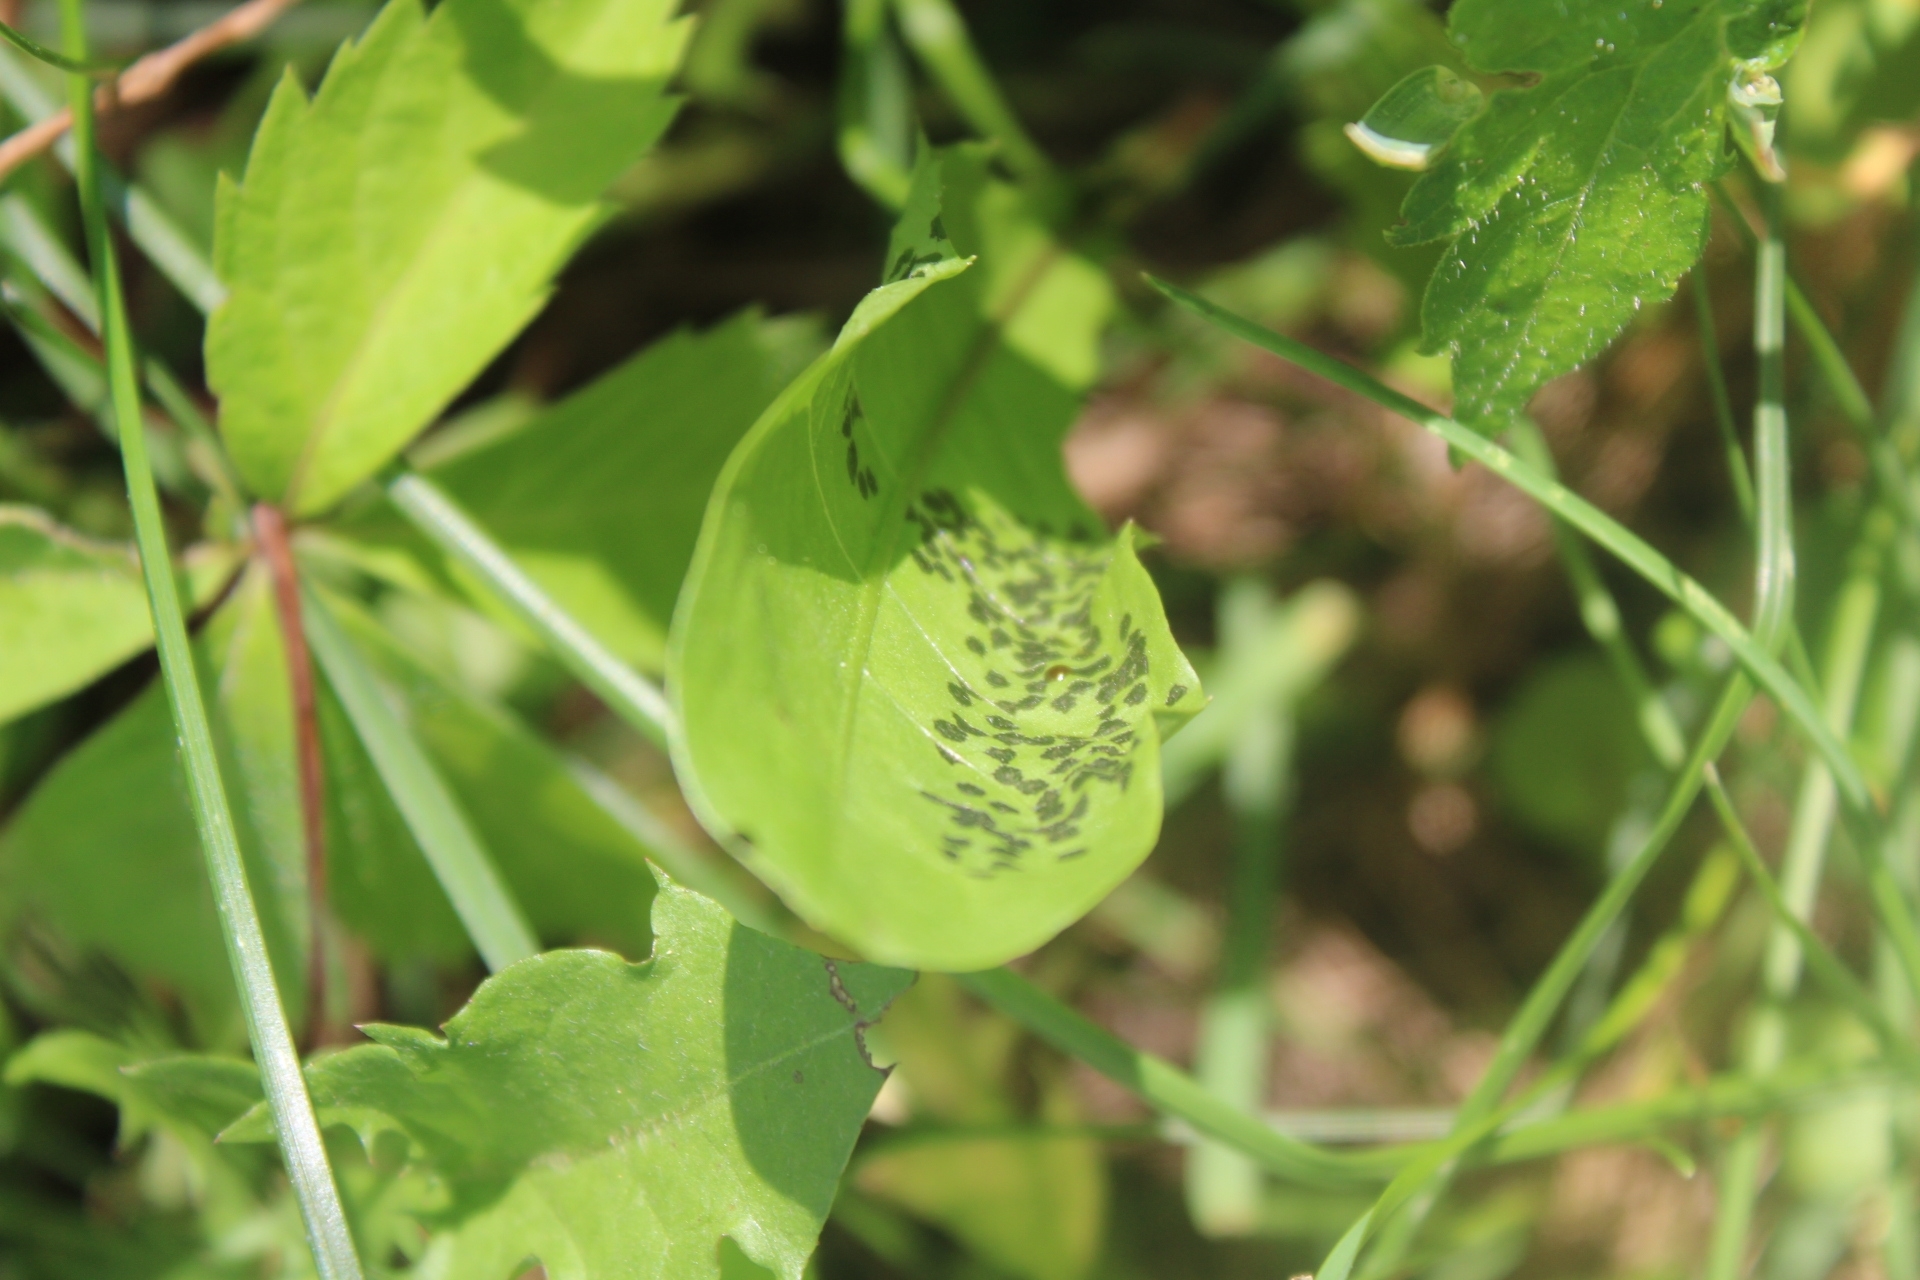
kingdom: Animalia
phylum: Arthropoda
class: Insecta
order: Hemiptera
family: Miridae
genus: Poecilocapsus
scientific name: Poecilocapsus lineatus
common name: Four-lined plant bug
